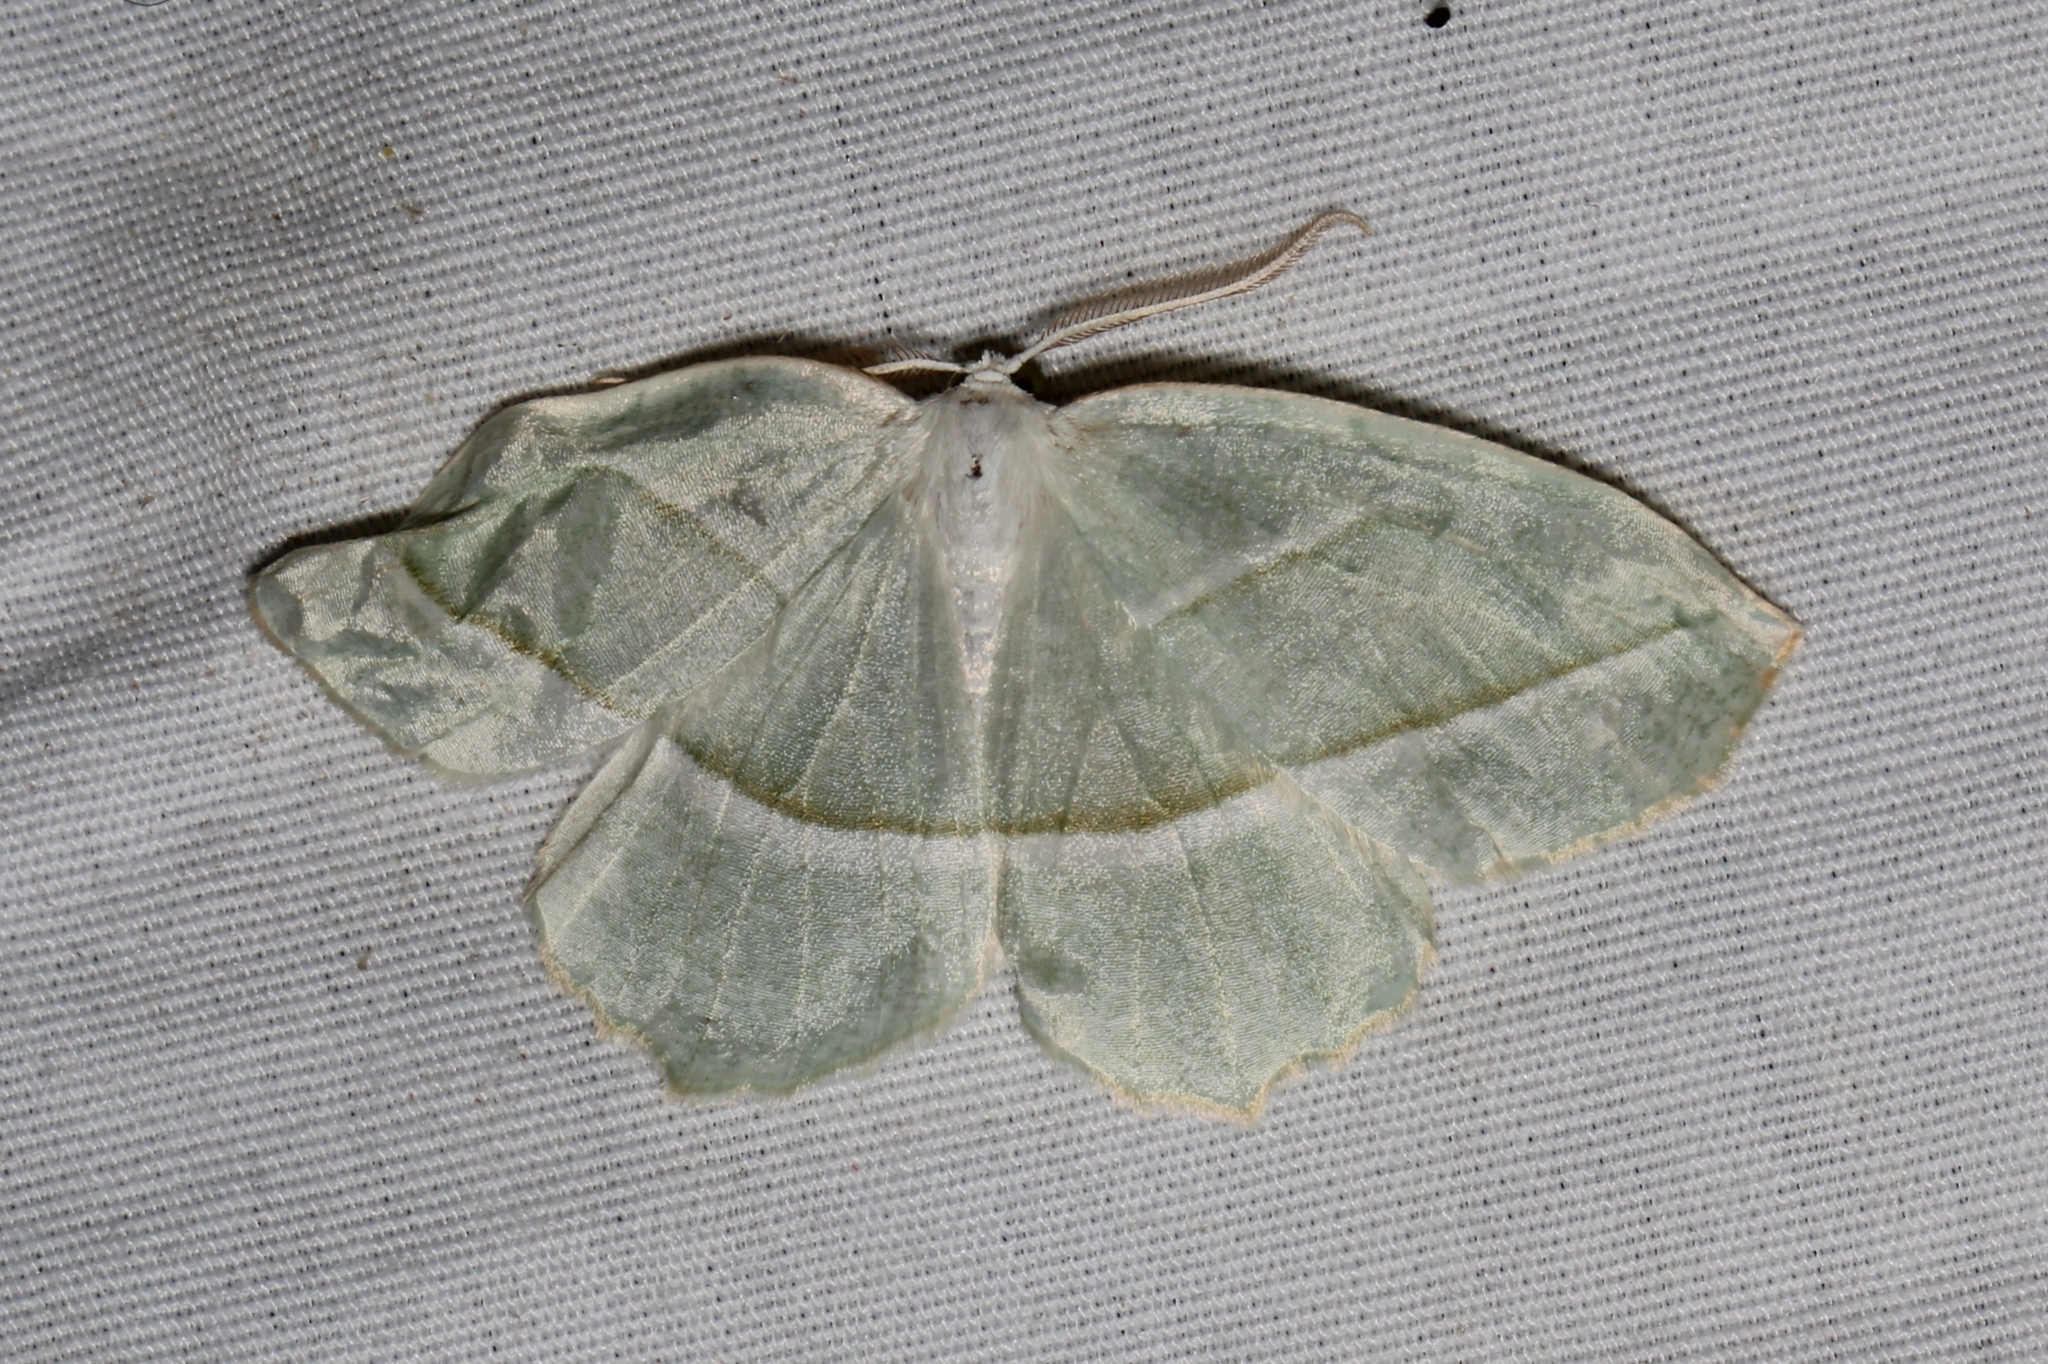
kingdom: Animalia
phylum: Arthropoda
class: Insecta
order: Lepidoptera
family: Geometridae
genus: Campaea
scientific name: Campaea perlata
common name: Fringed looper
